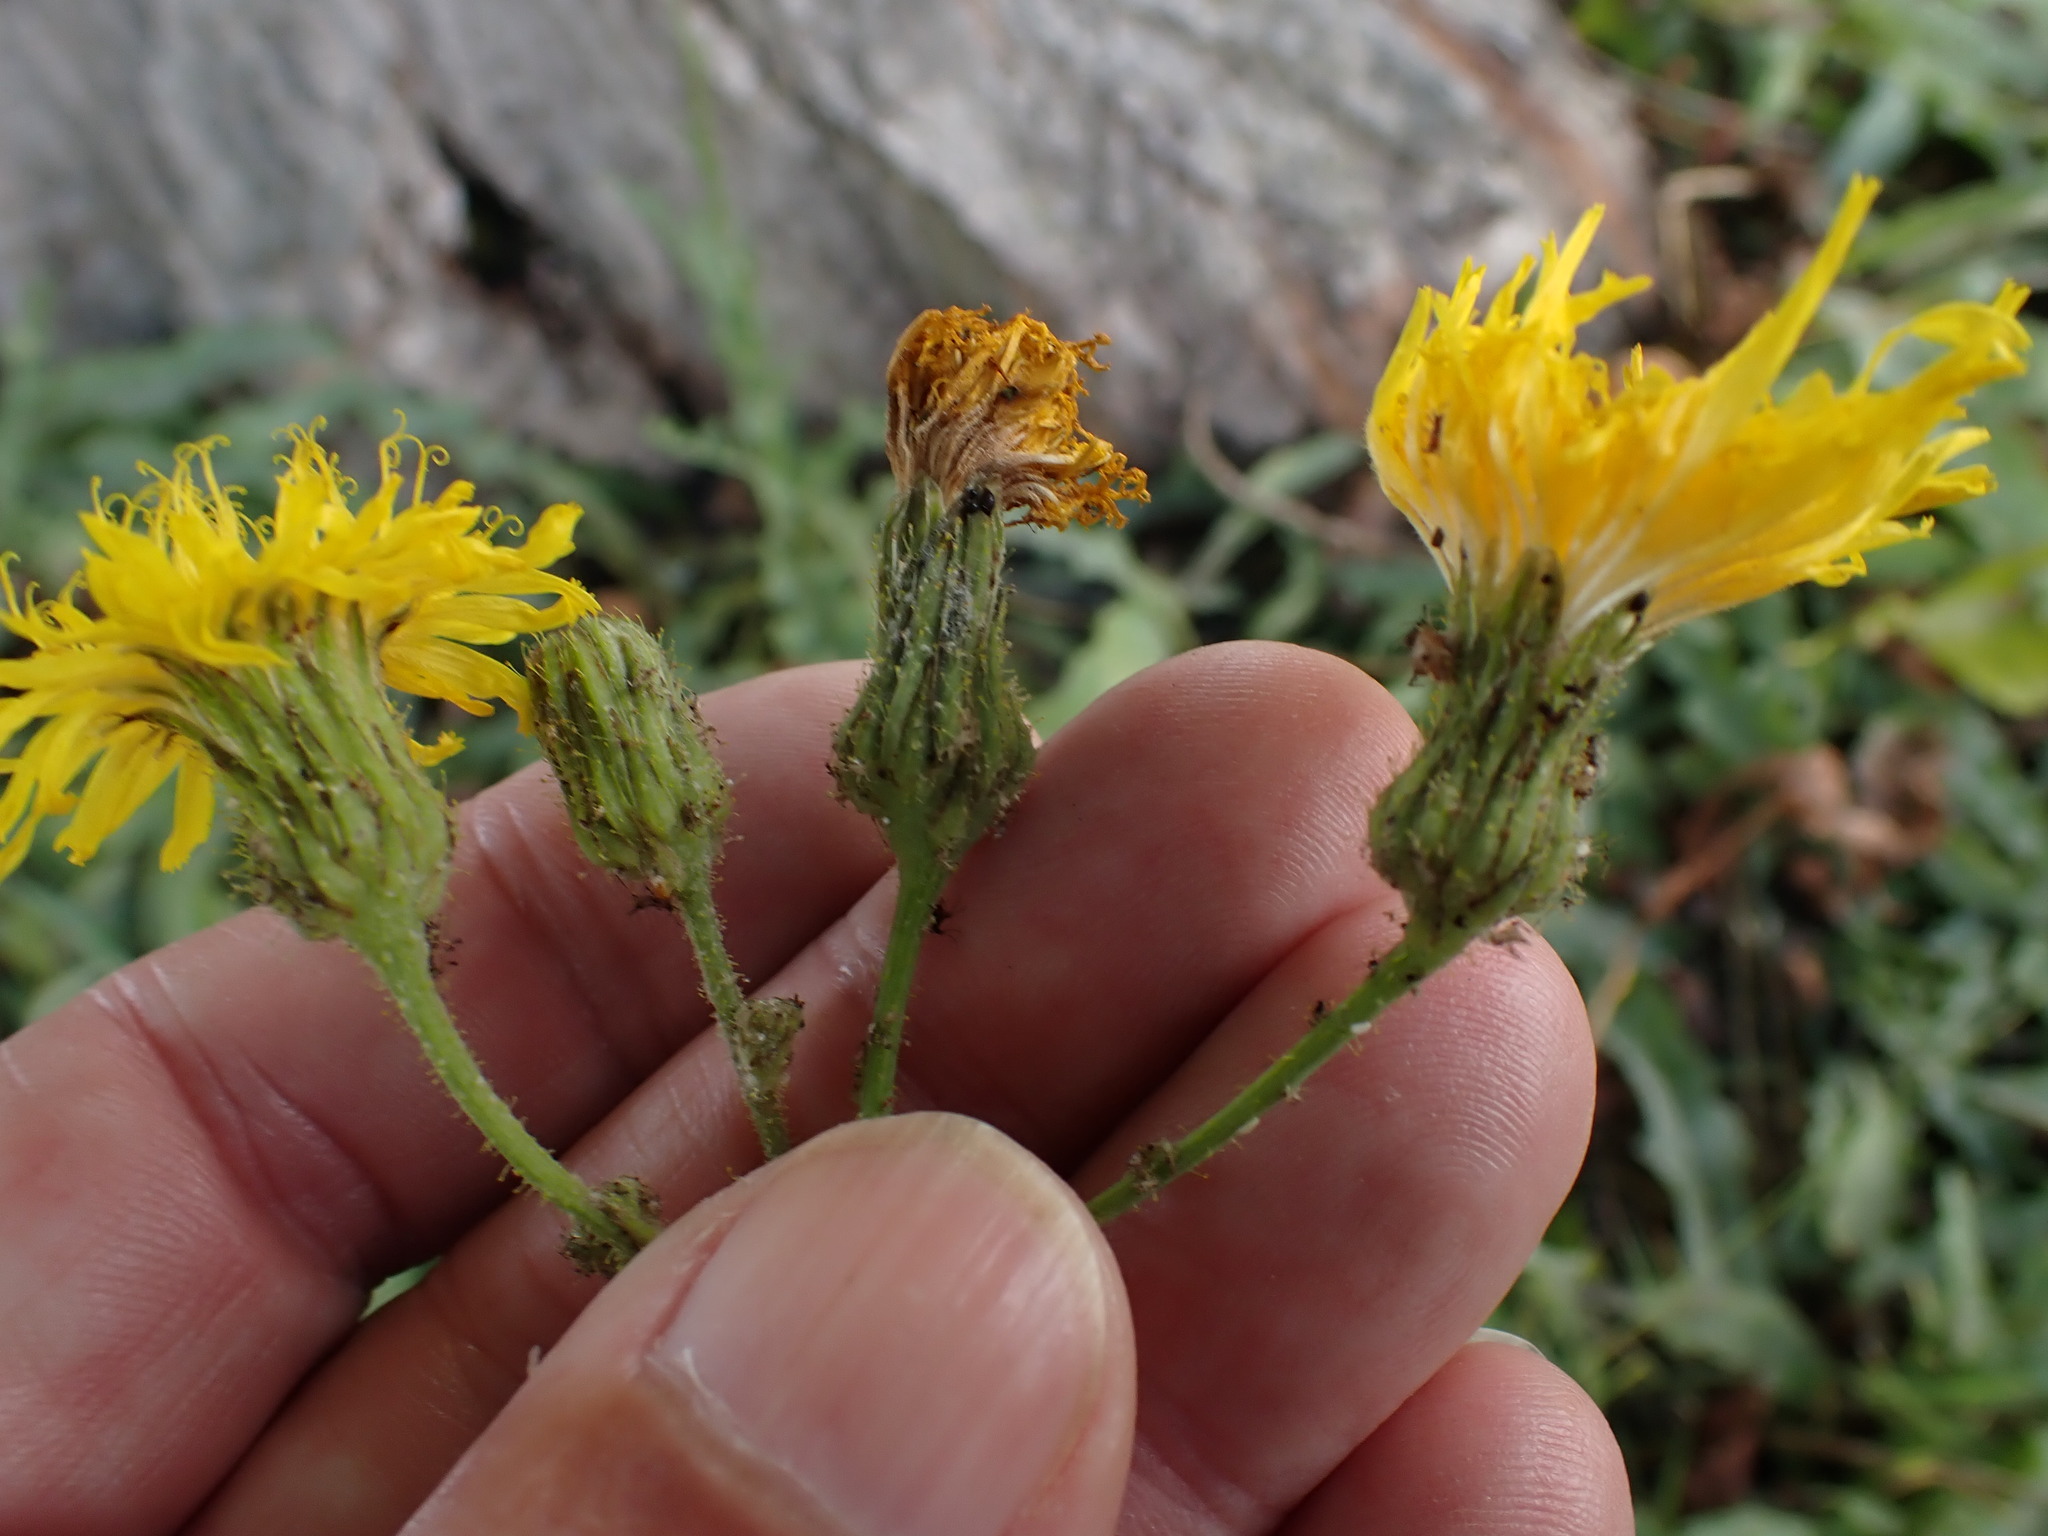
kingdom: Plantae
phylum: Tracheophyta
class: Magnoliopsida
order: Asterales
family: Asteraceae
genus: Sonchus
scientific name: Sonchus arvensis
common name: Perennial sow-thistle
